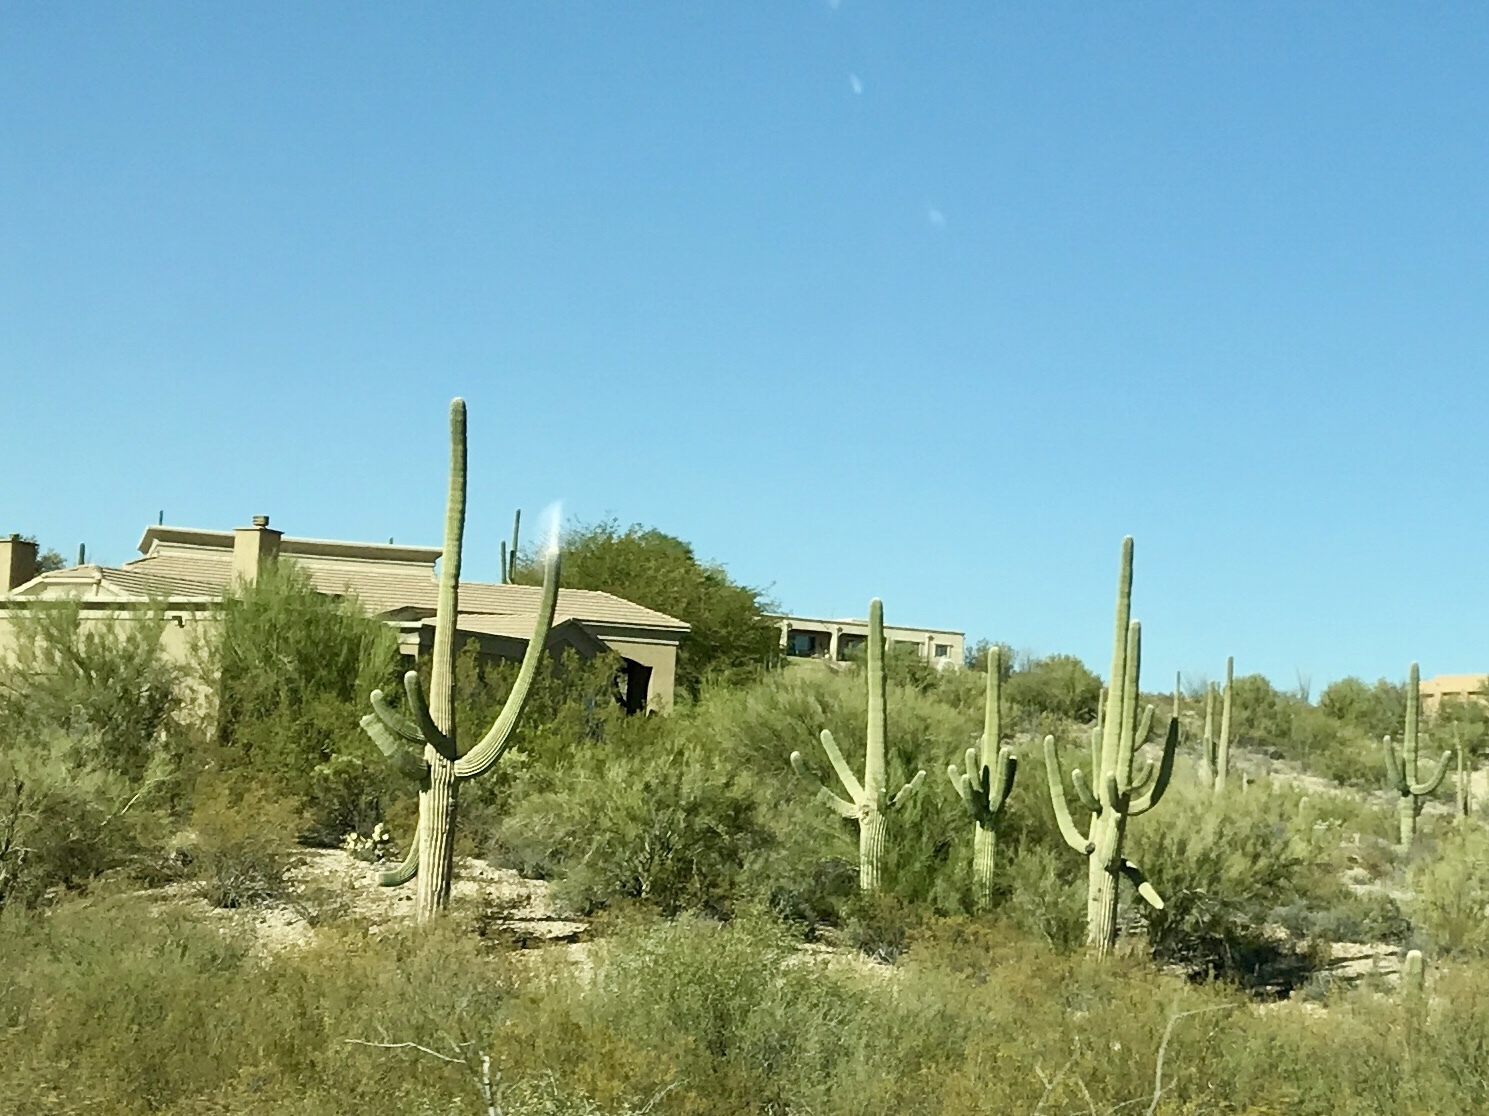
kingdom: Plantae
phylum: Tracheophyta
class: Magnoliopsida
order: Caryophyllales
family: Cactaceae
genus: Carnegiea
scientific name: Carnegiea gigantea
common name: Saguaro
